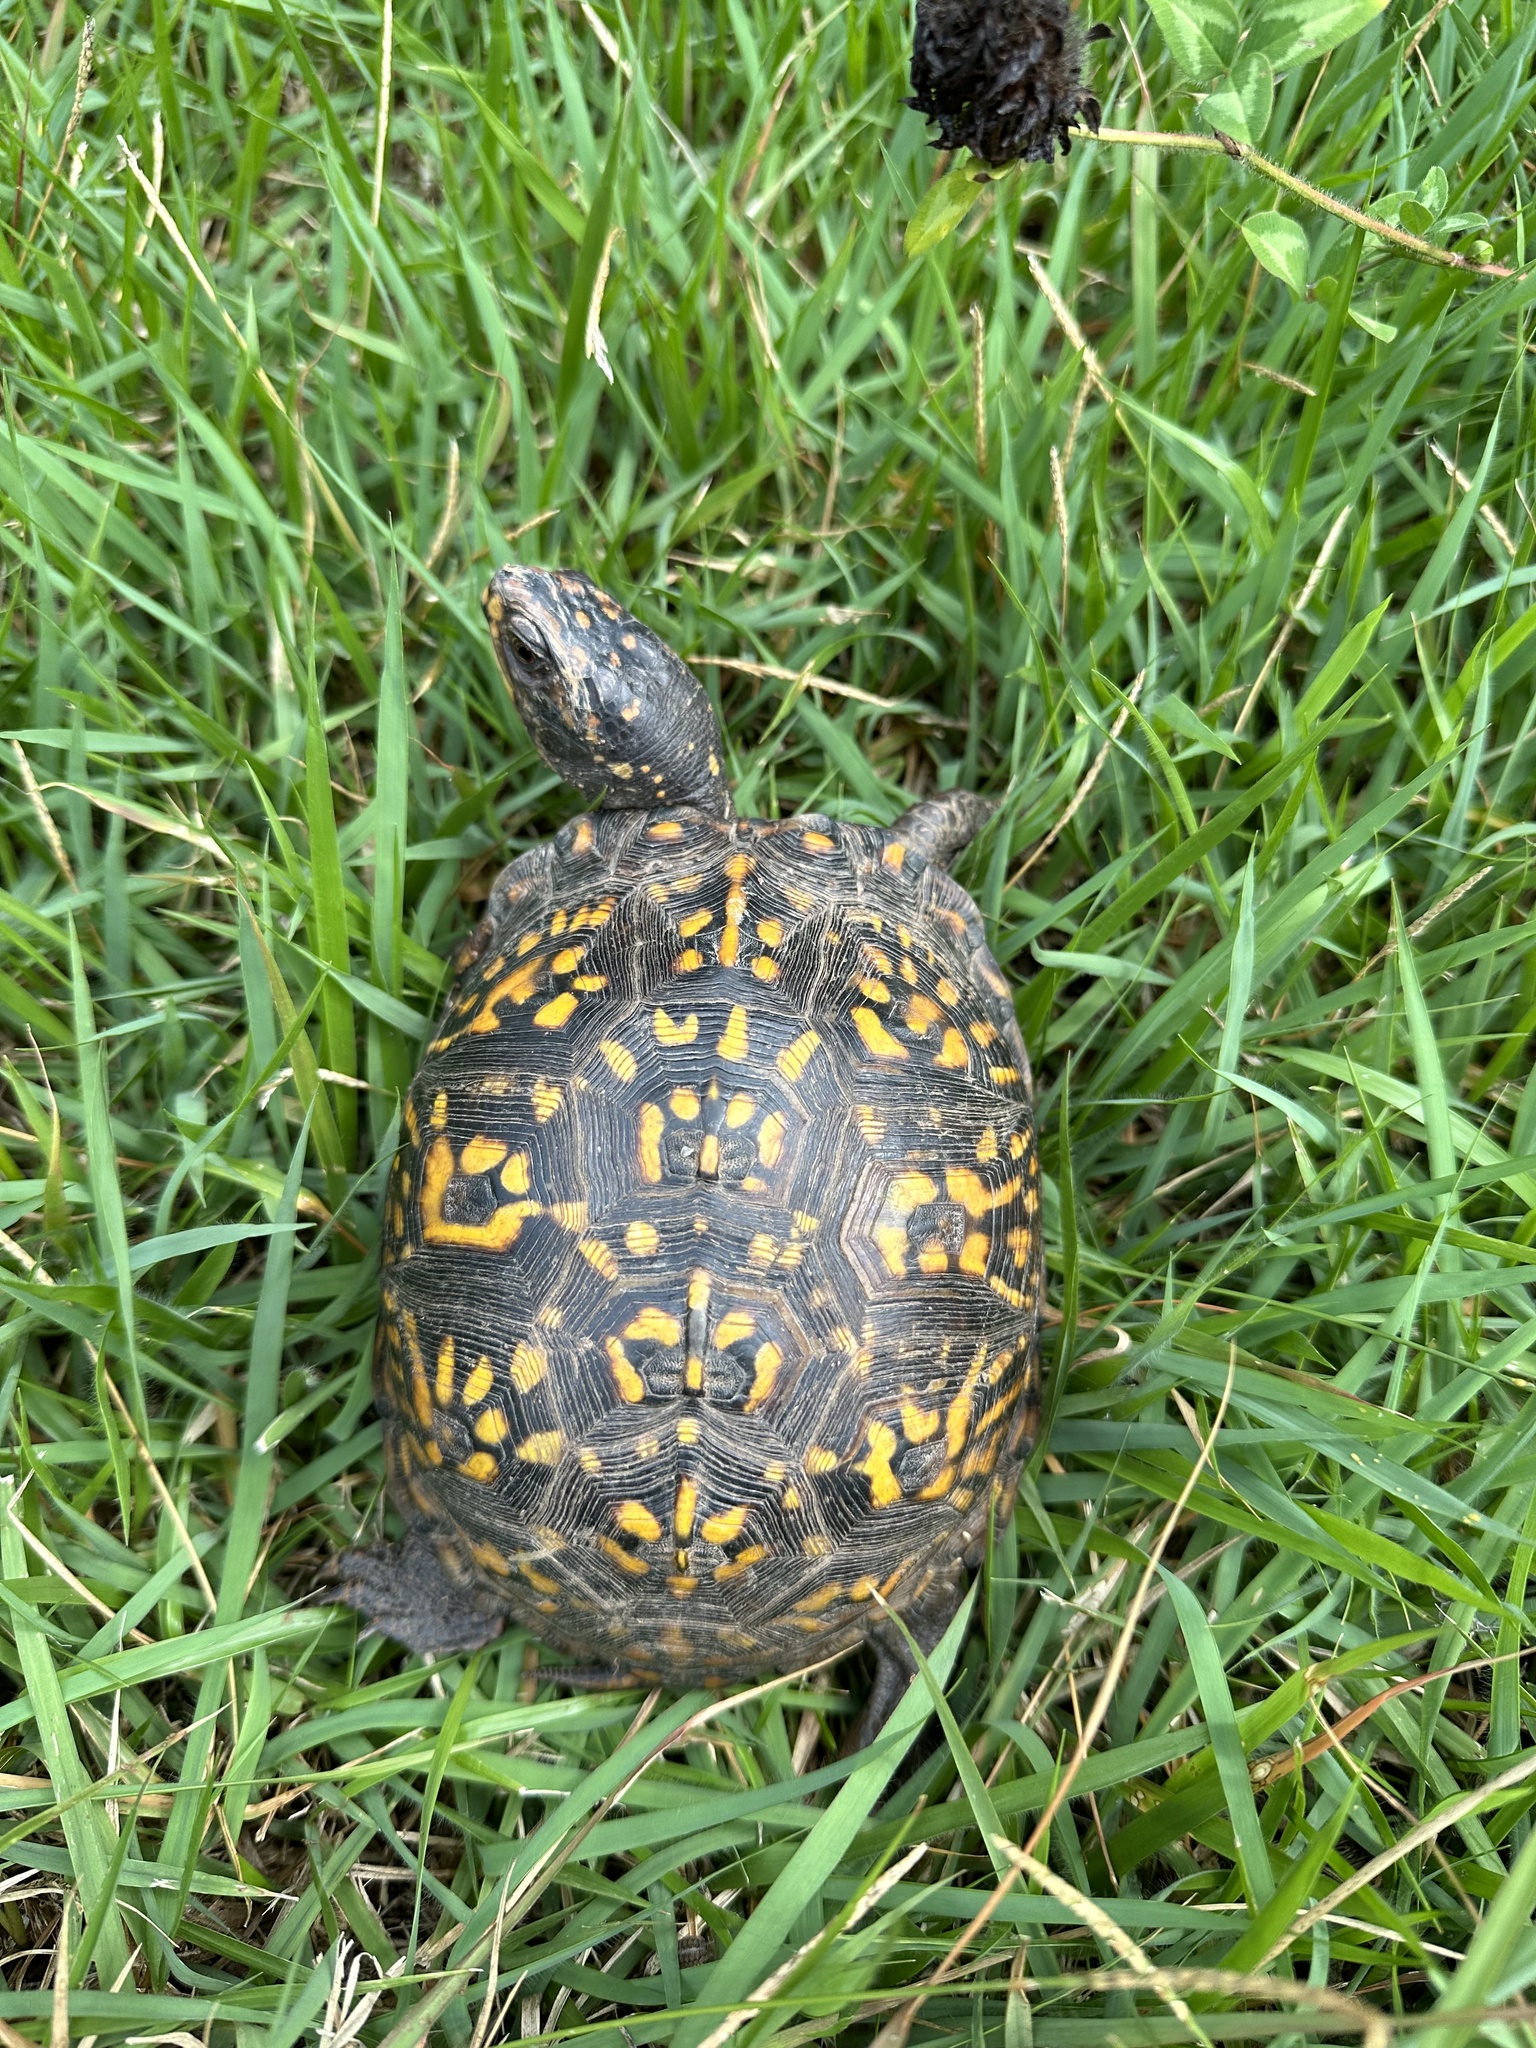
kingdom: Animalia
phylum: Chordata
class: Testudines
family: Emydidae
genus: Terrapene
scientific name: Terrapene carolina
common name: Common box turtle
